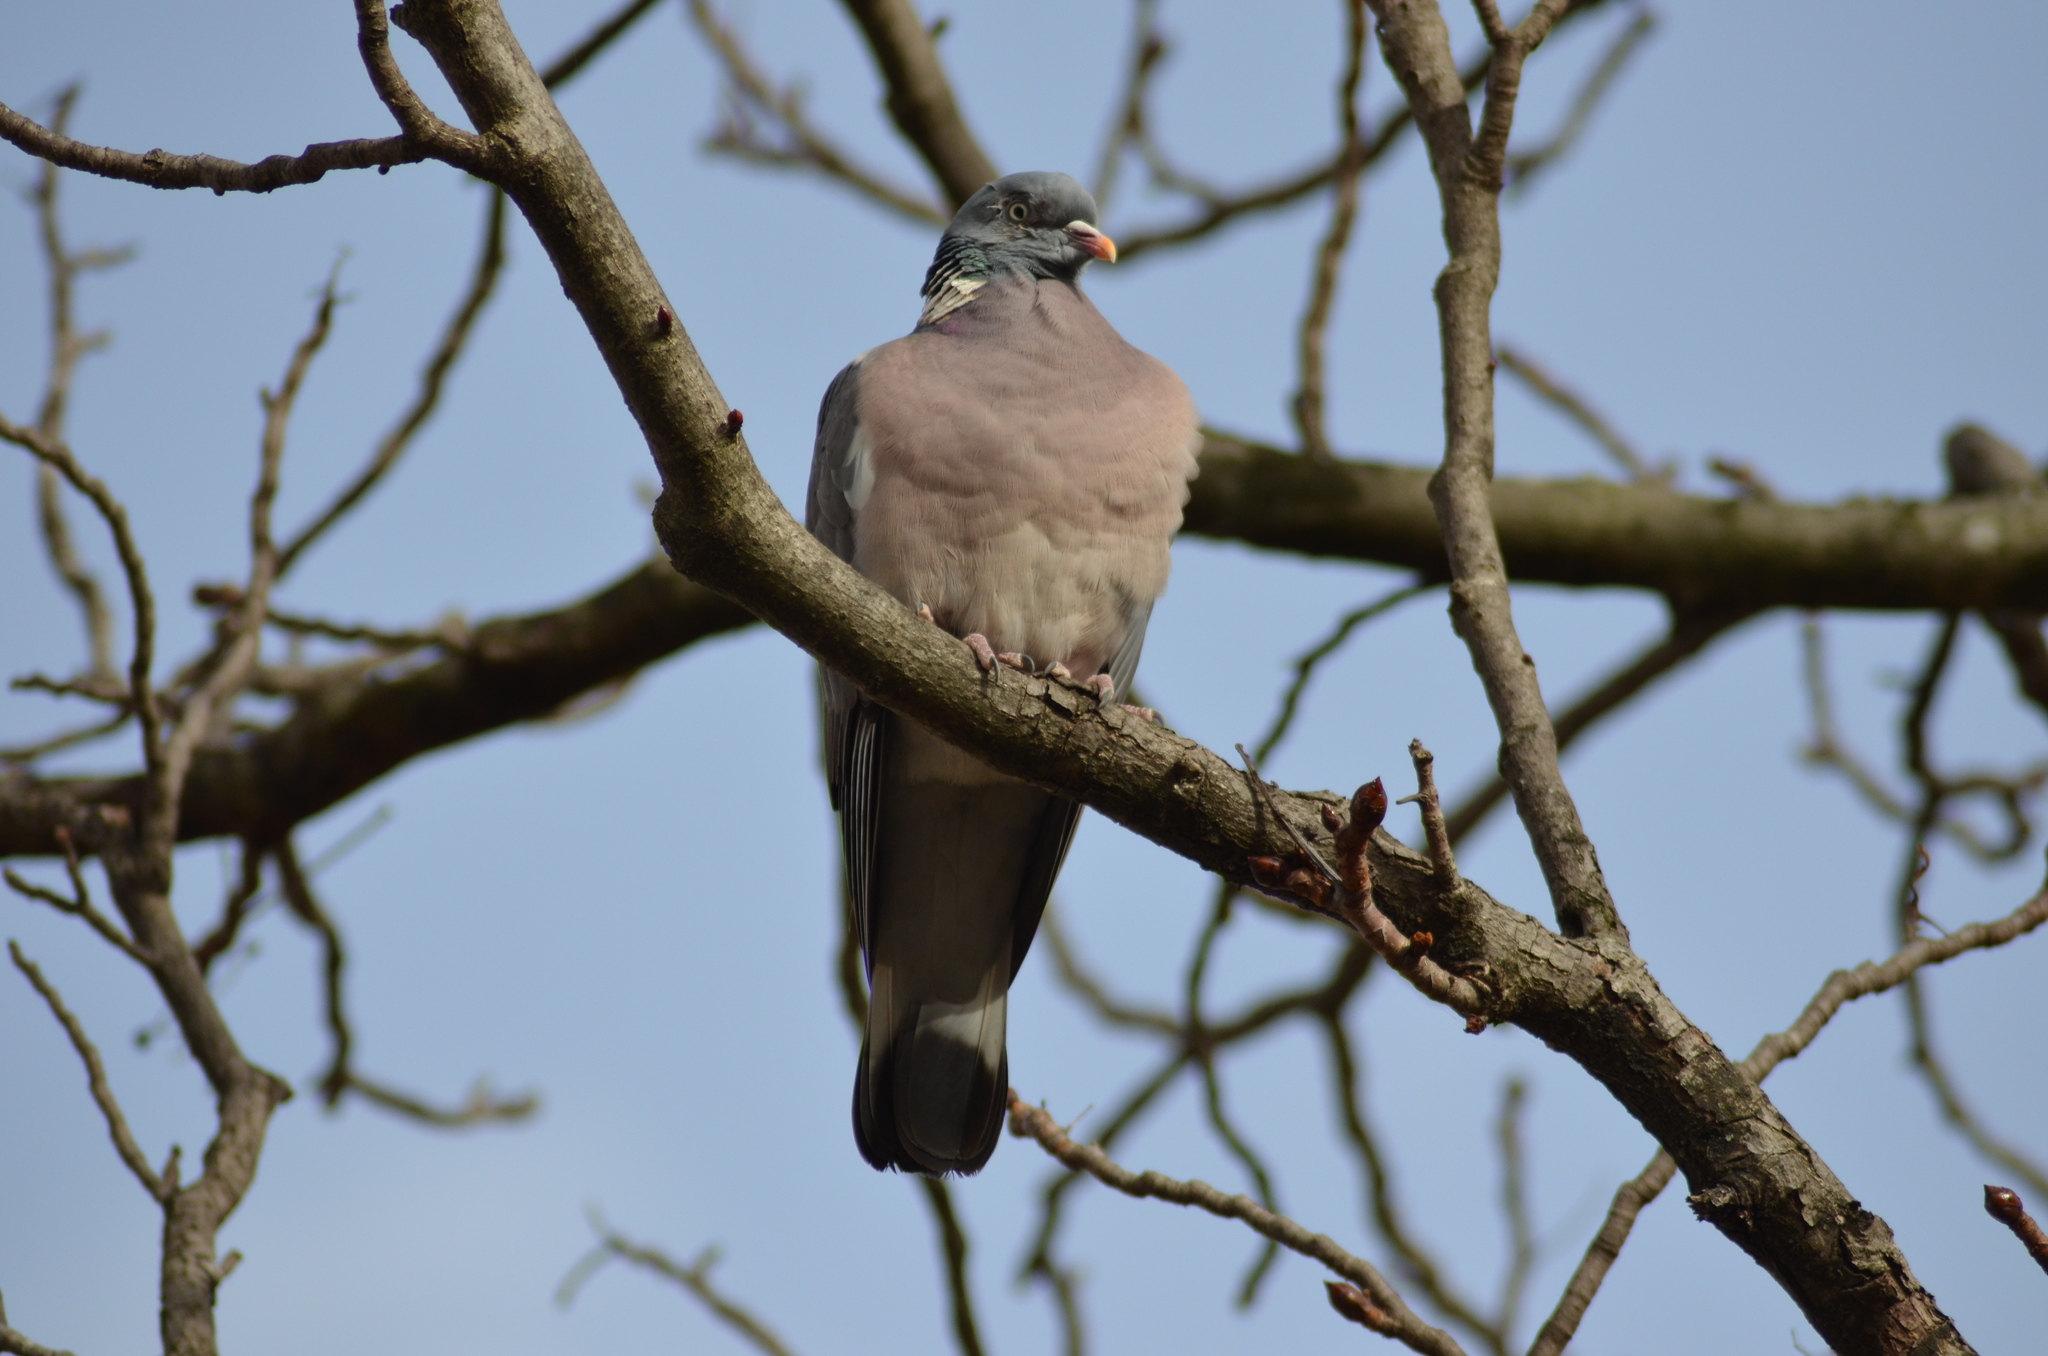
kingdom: Animalia
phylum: Chordata
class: Aves
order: Columbiformes
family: Columbidae
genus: Columba
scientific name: Columba palumbus
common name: Common wood pigeon
